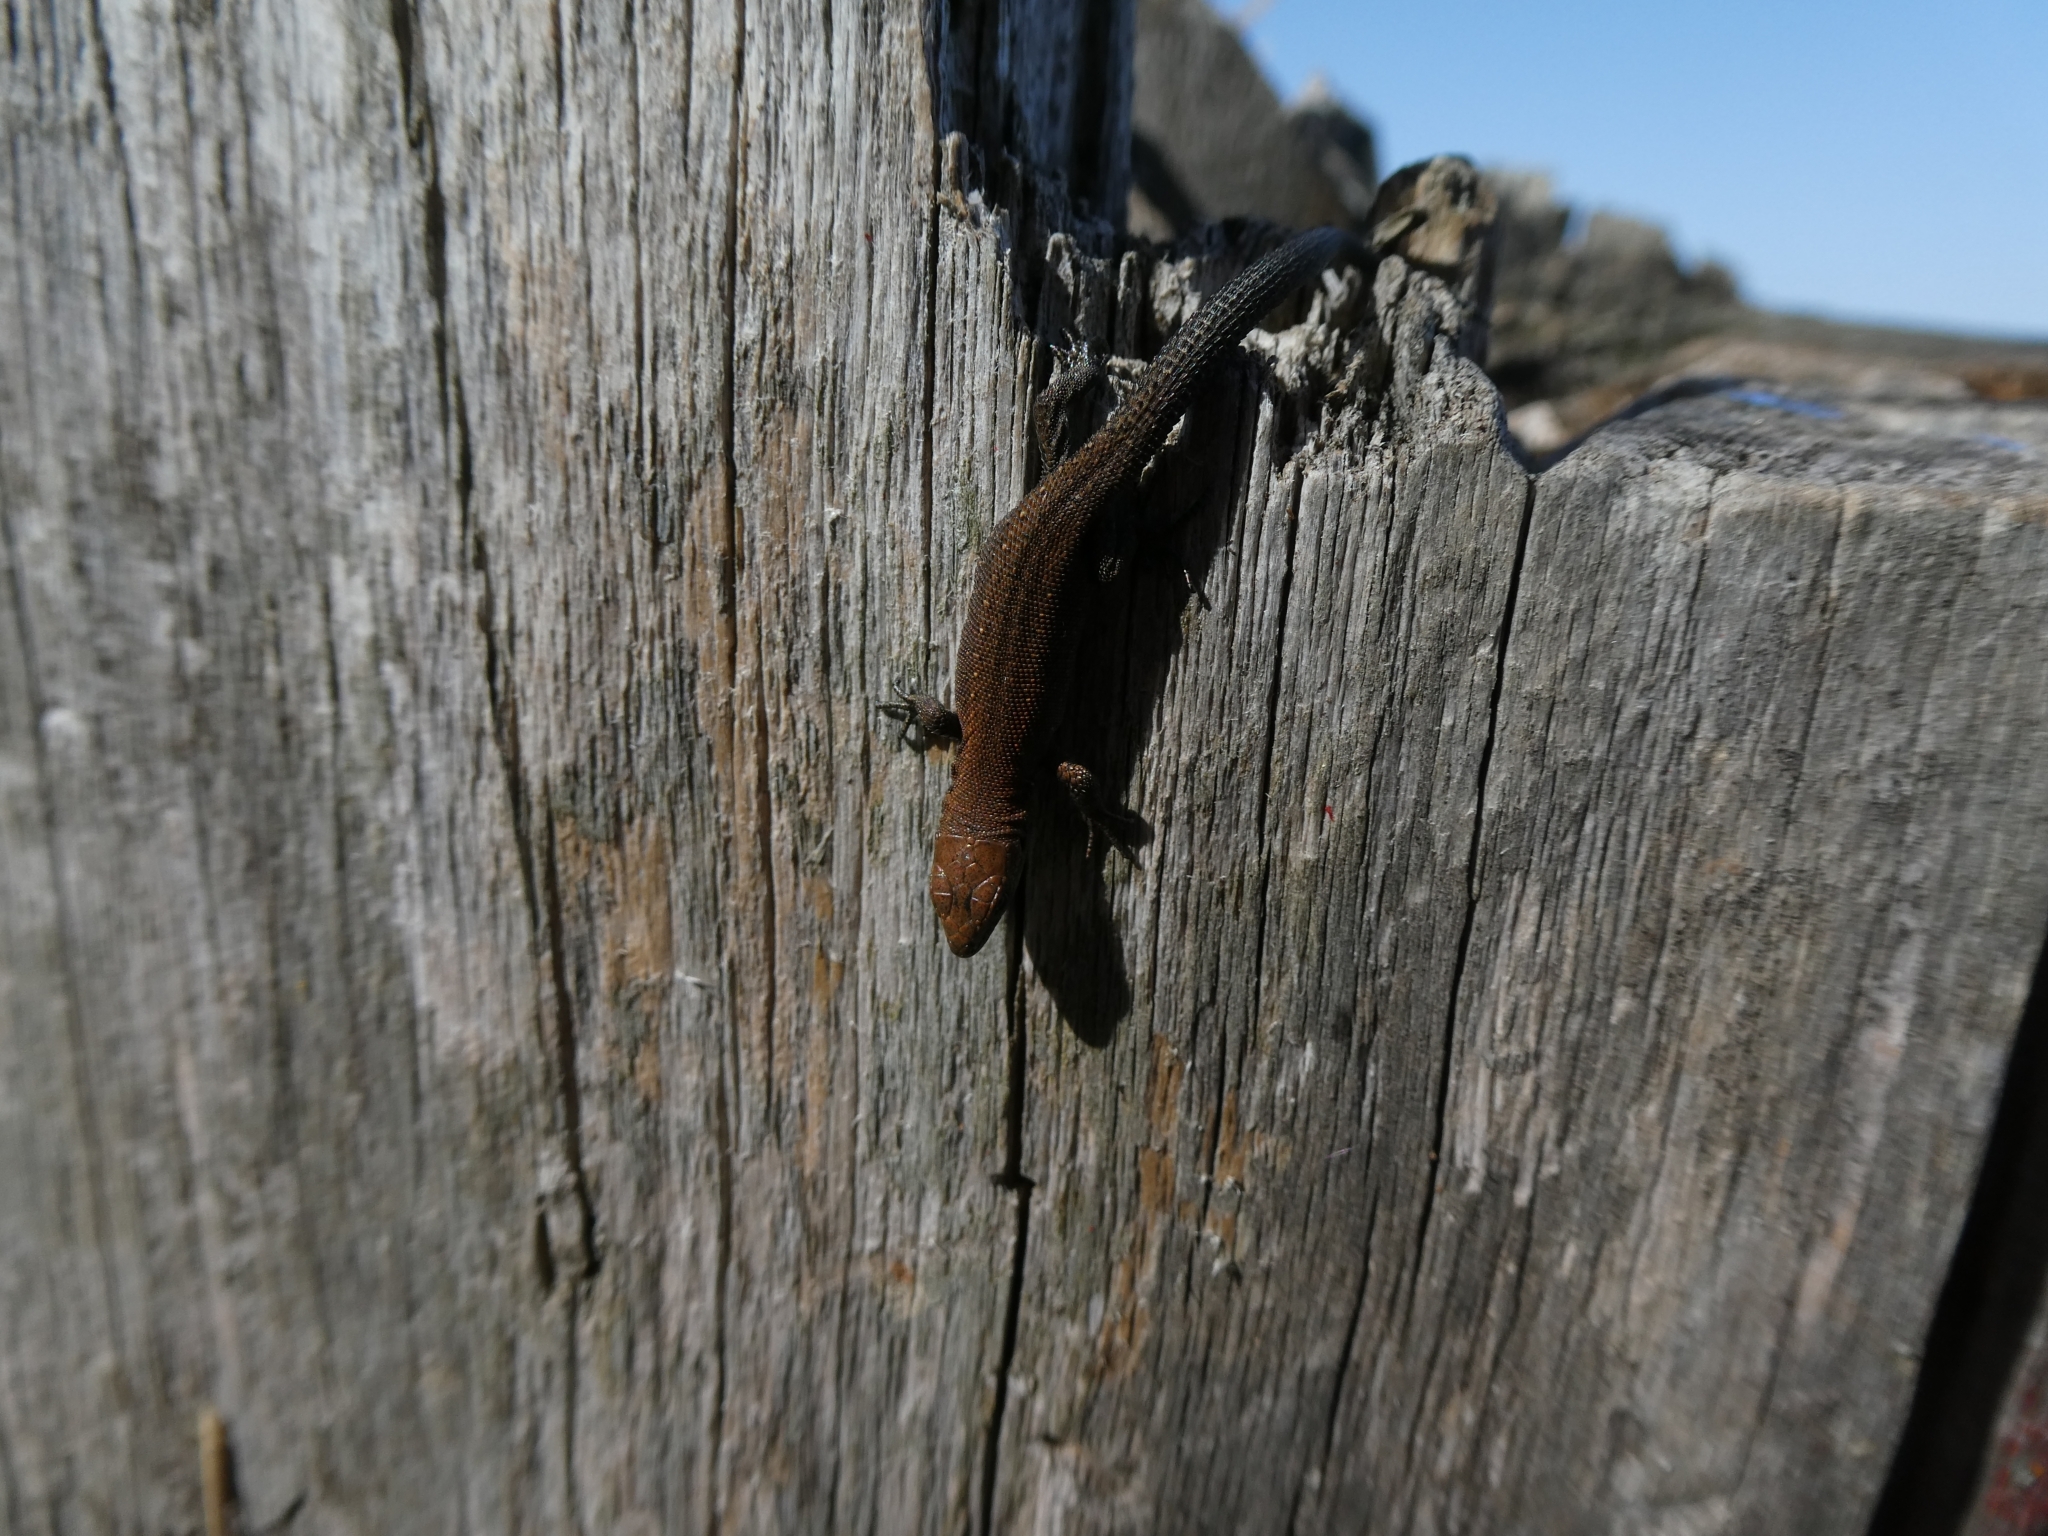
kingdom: Animalia
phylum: Chordata
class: Squamata
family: Lacertidae
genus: Zootoca
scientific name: Zootoca vivipara
